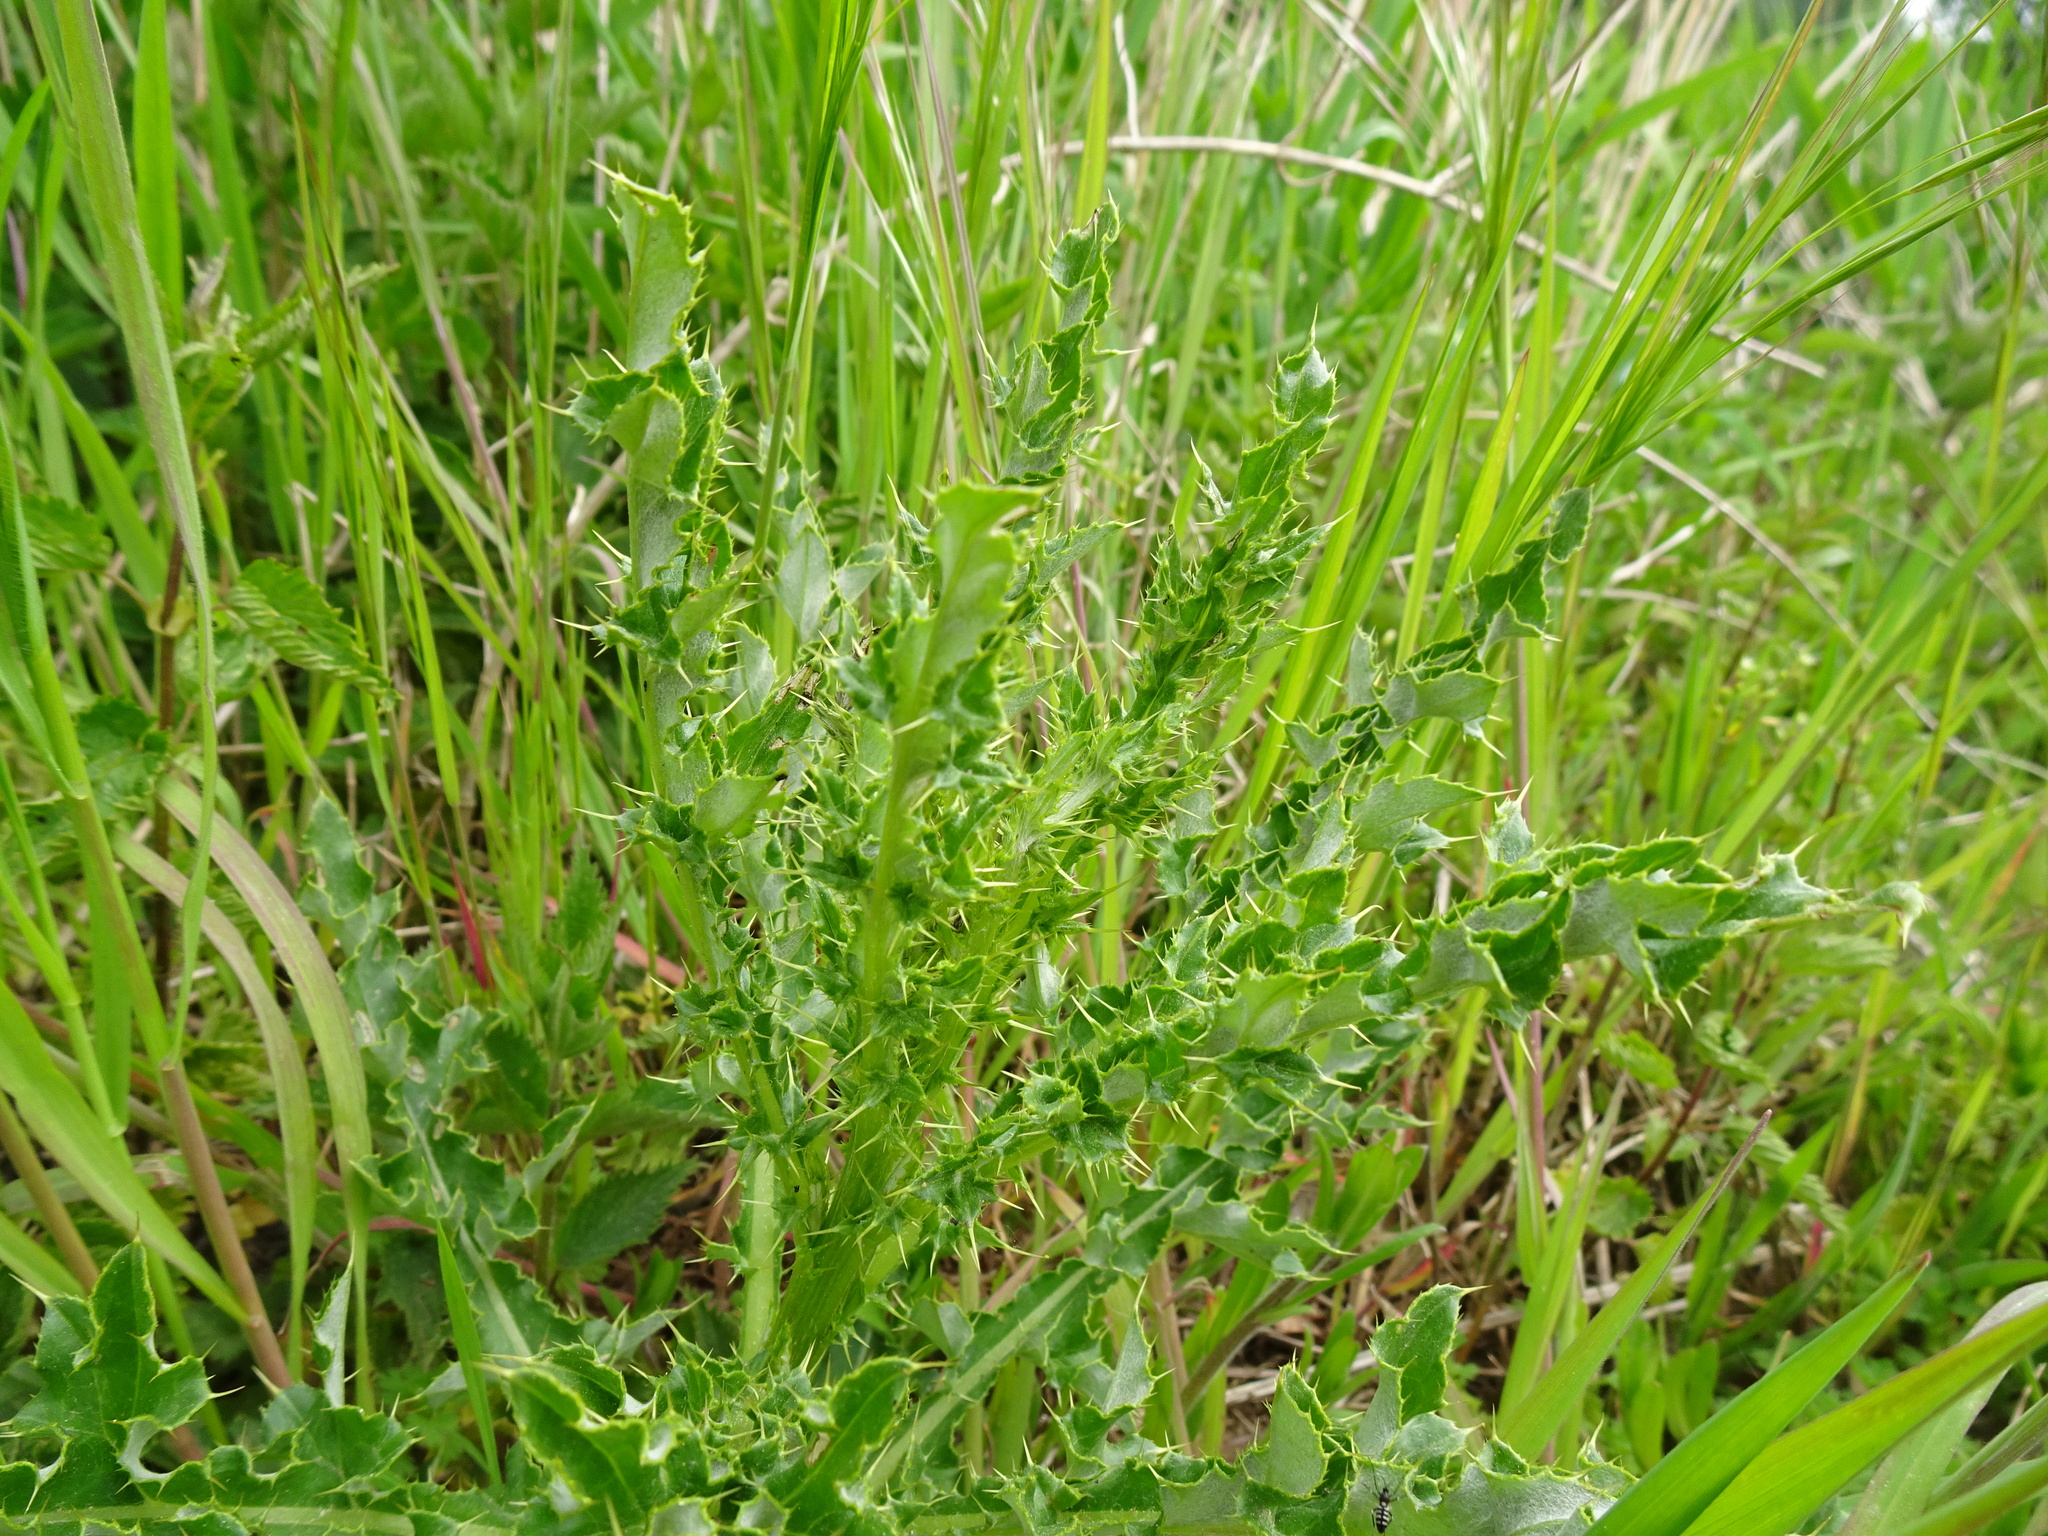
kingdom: Plantae
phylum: Tracheophyta
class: Magnoliopsida
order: Asterales
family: Asteraceae
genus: Cirsium
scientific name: Cirsium arvense
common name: Creeping thistle
